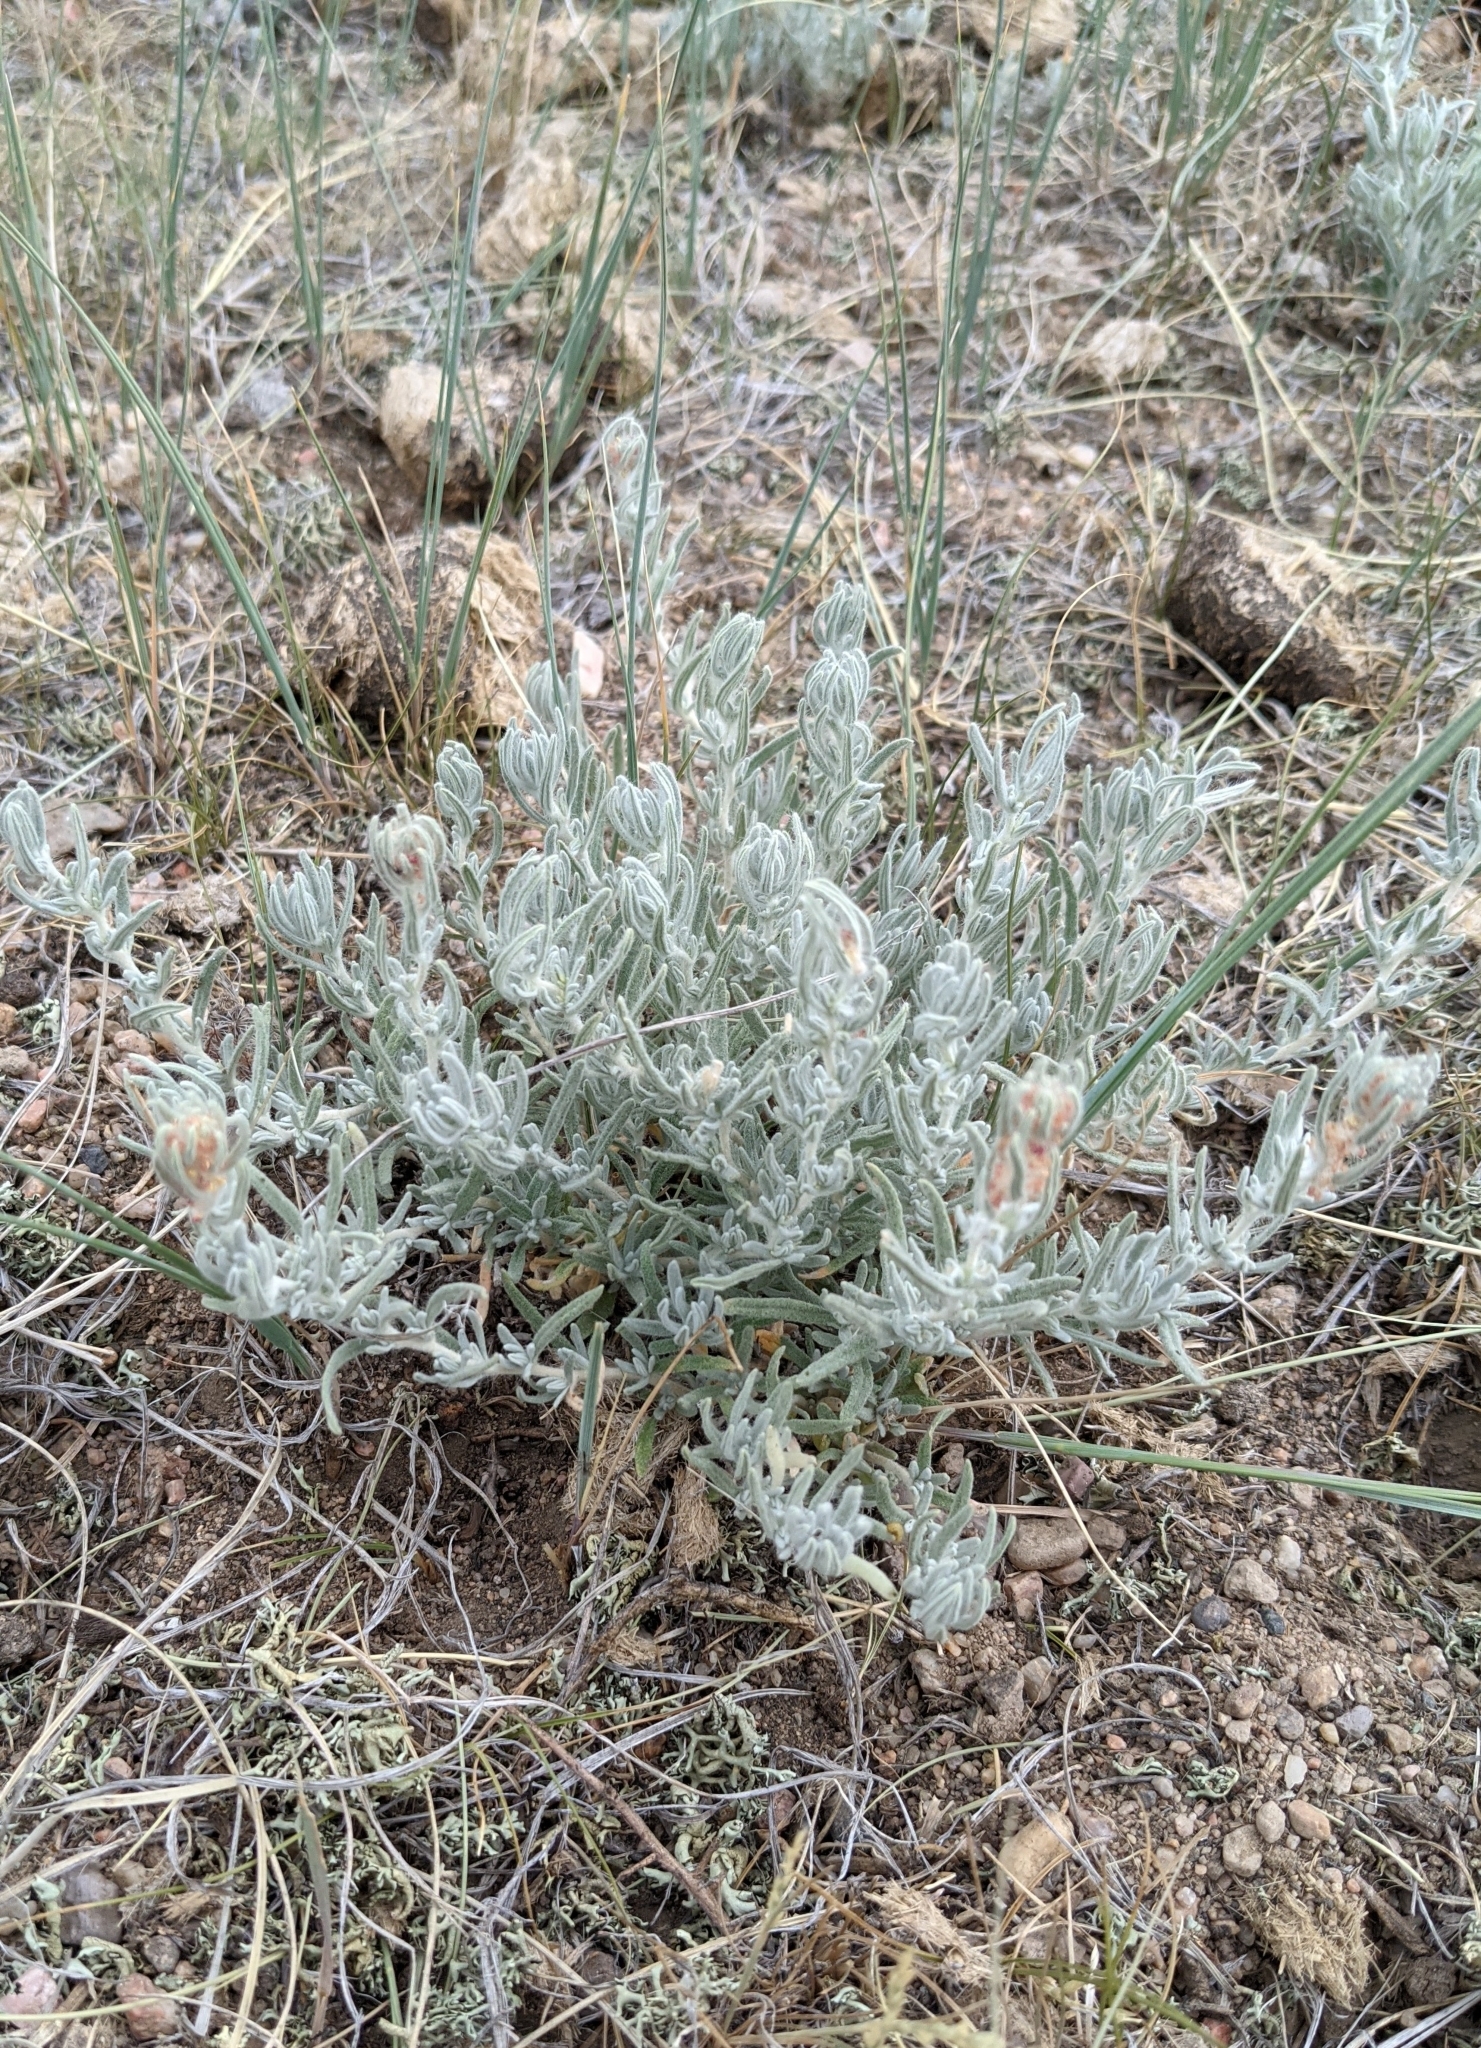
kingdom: Plantae
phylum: Tracheophyta
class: Magnoliopsida
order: Caryophyllales
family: Amaranthaceae
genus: Krascheninnikovia
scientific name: Krascheninnikovia lanata
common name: Winterfat
